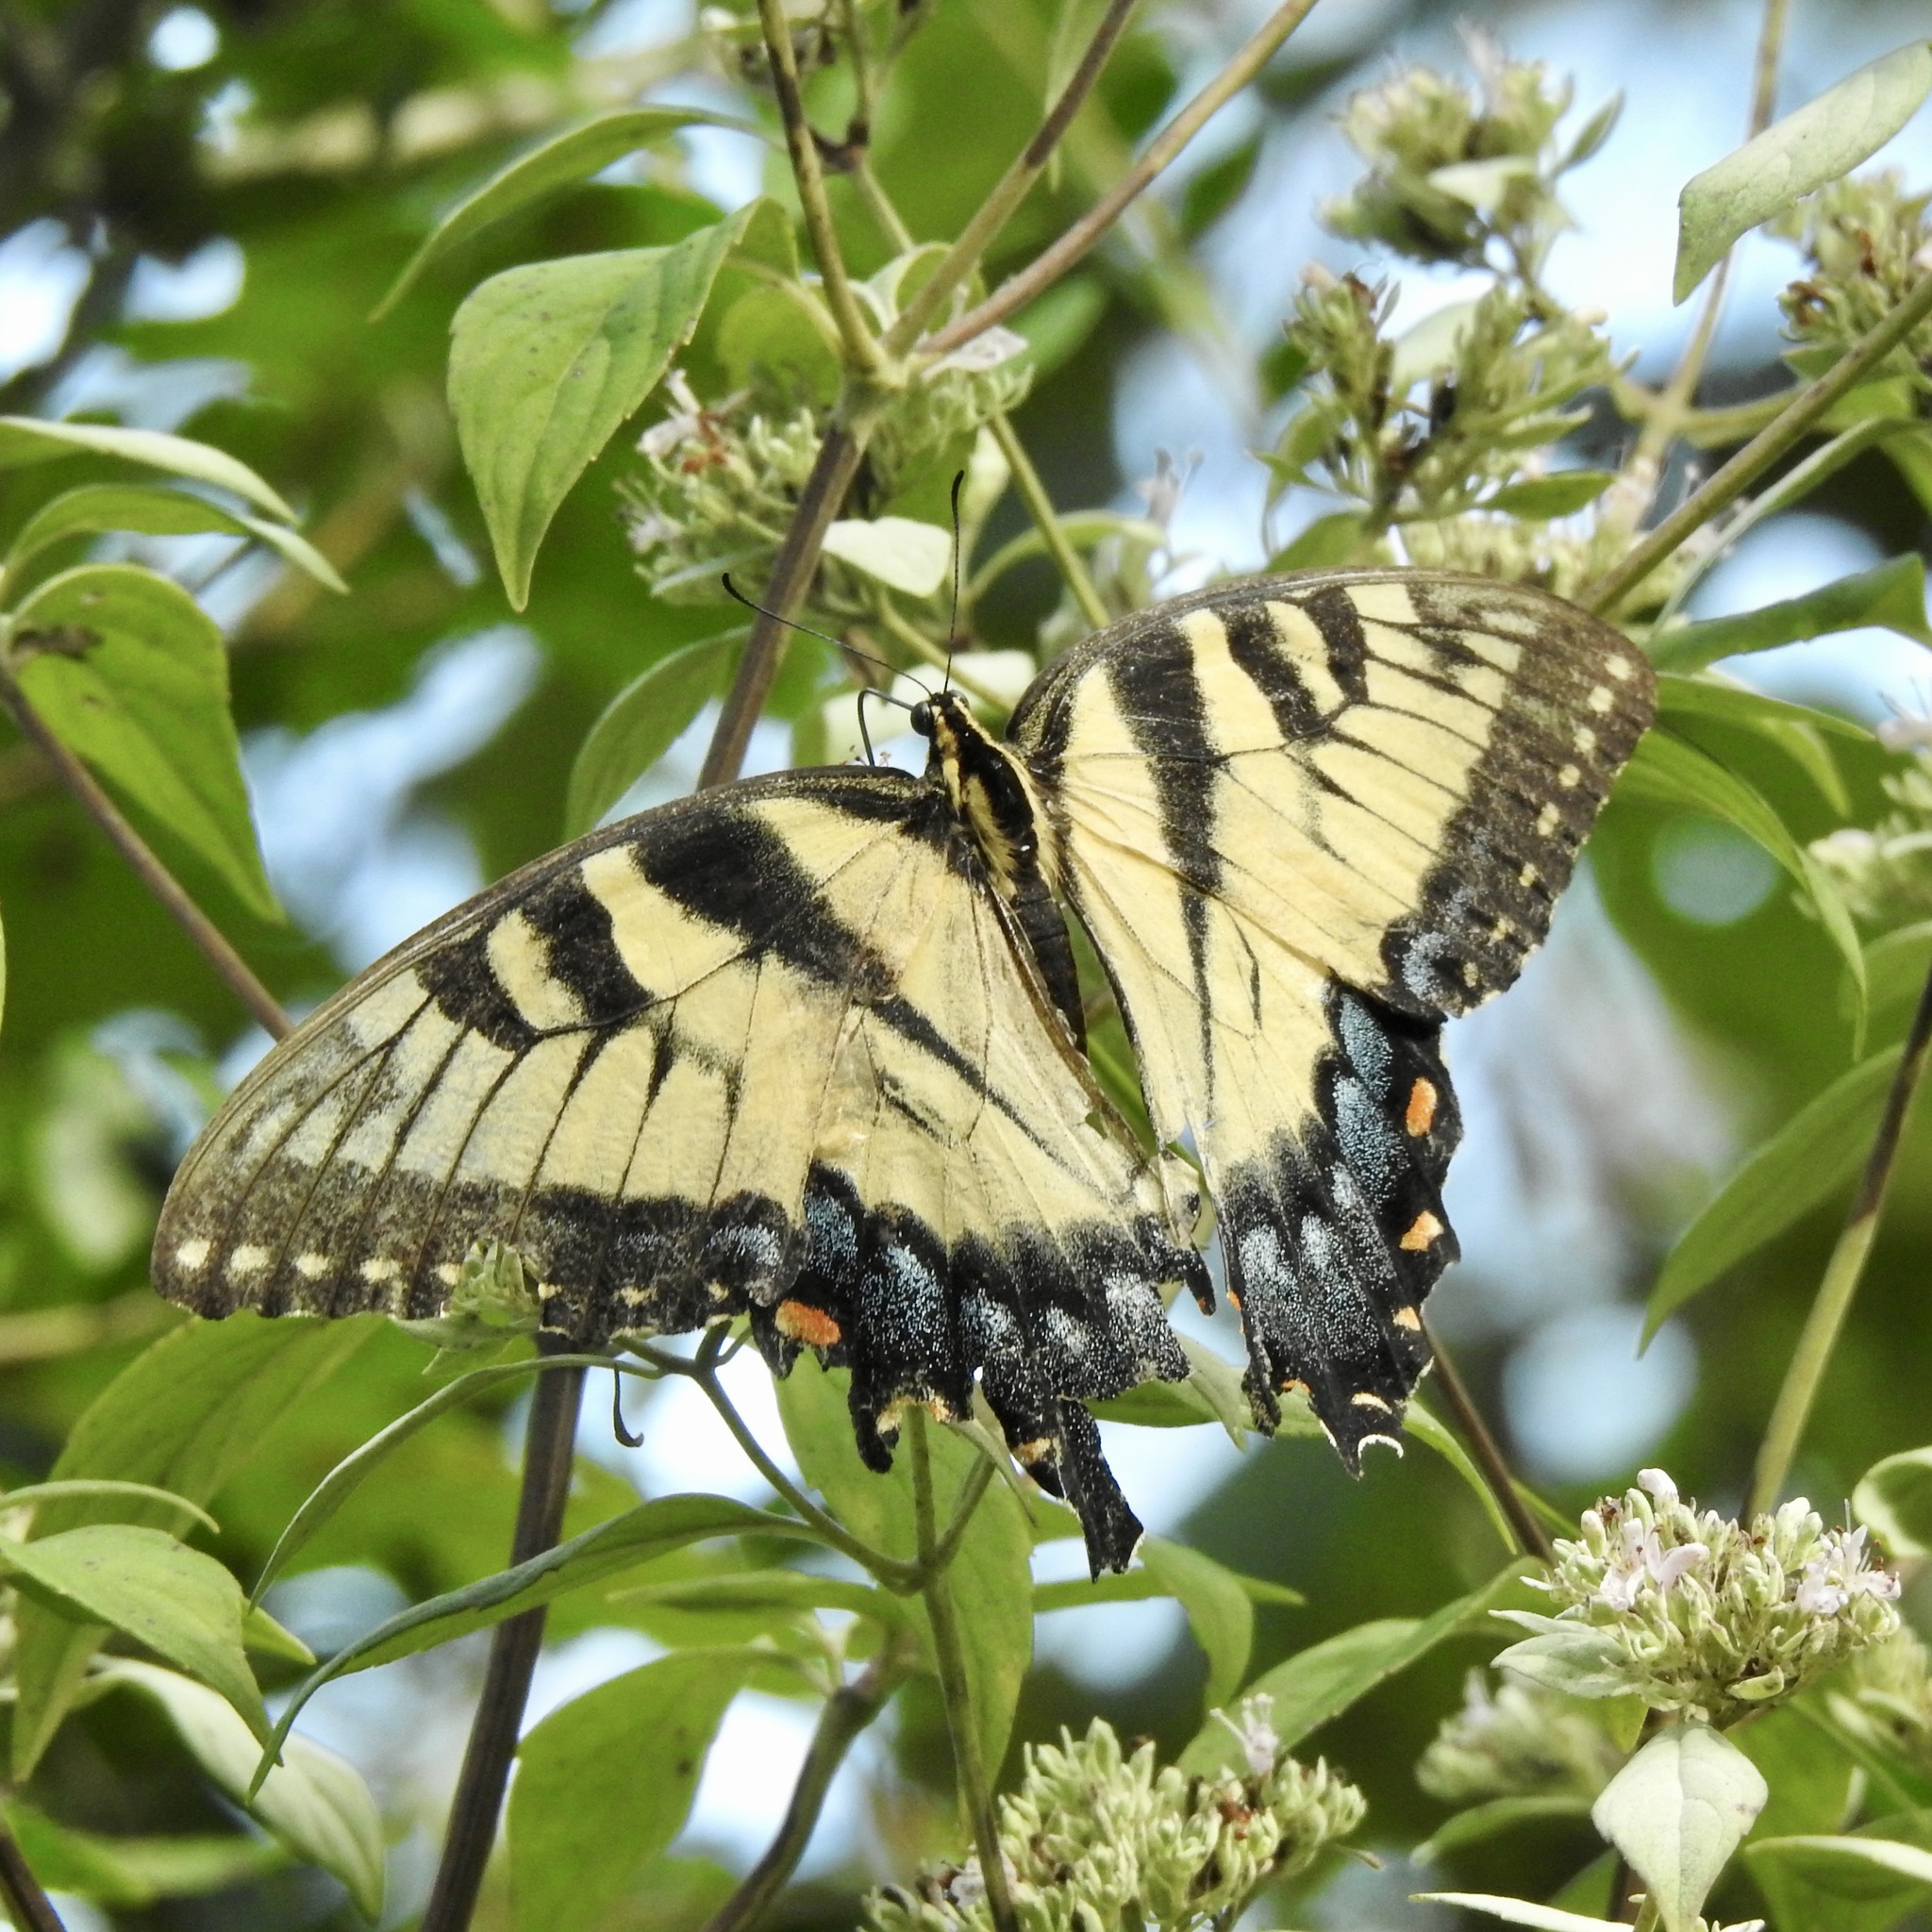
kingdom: Animalia
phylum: Arthropoda
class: Insecta
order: Lepidoptera
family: Papilionidae
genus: Papilio
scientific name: Papilio glaucus
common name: Tiger swallowtail
